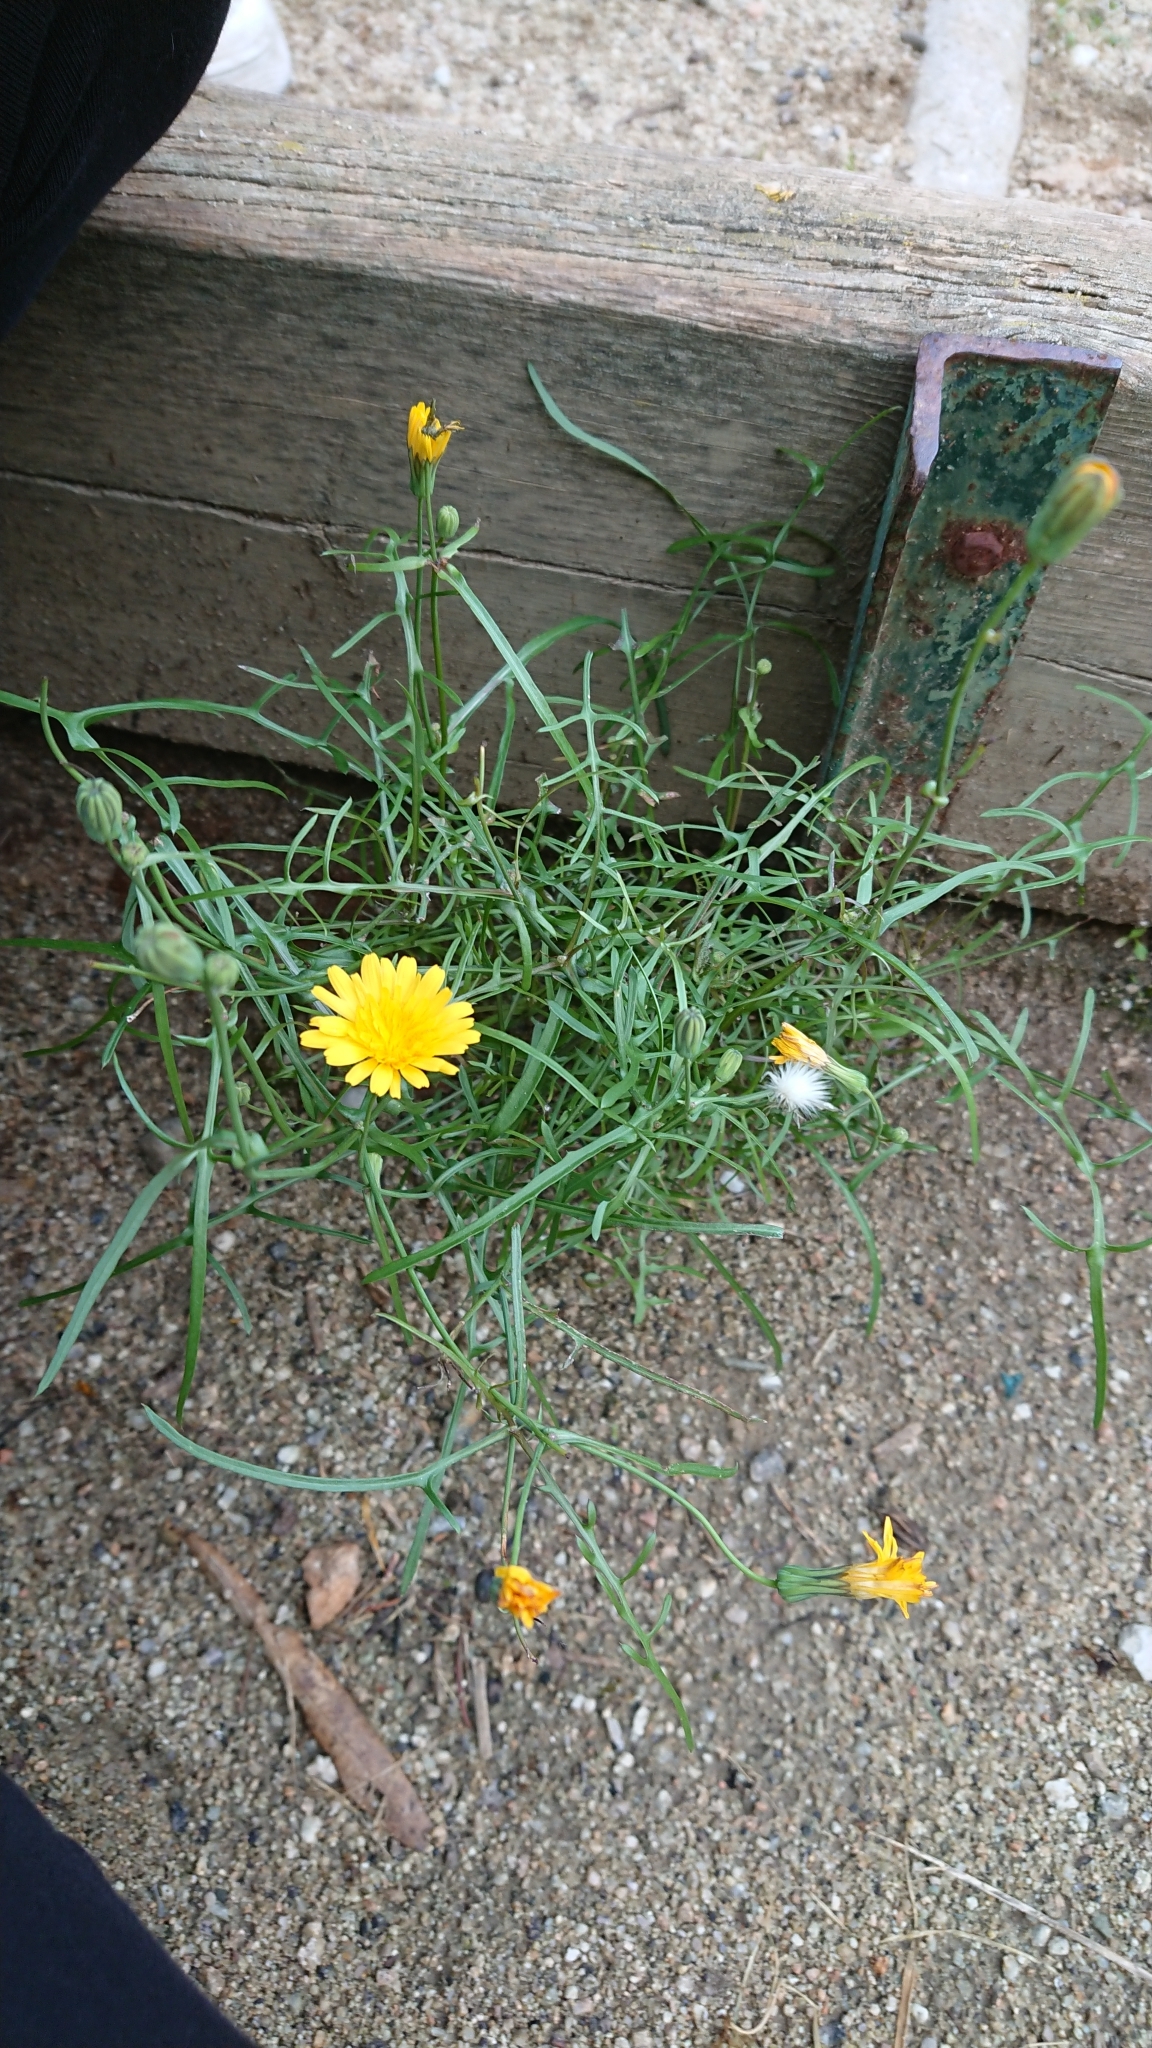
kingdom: Plantae
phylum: Tracheophyta
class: Magnoliopsida
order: Asterales
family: Asteraceae
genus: Sonchus
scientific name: Sonchus tenerrimus
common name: Clammy sowthistle
